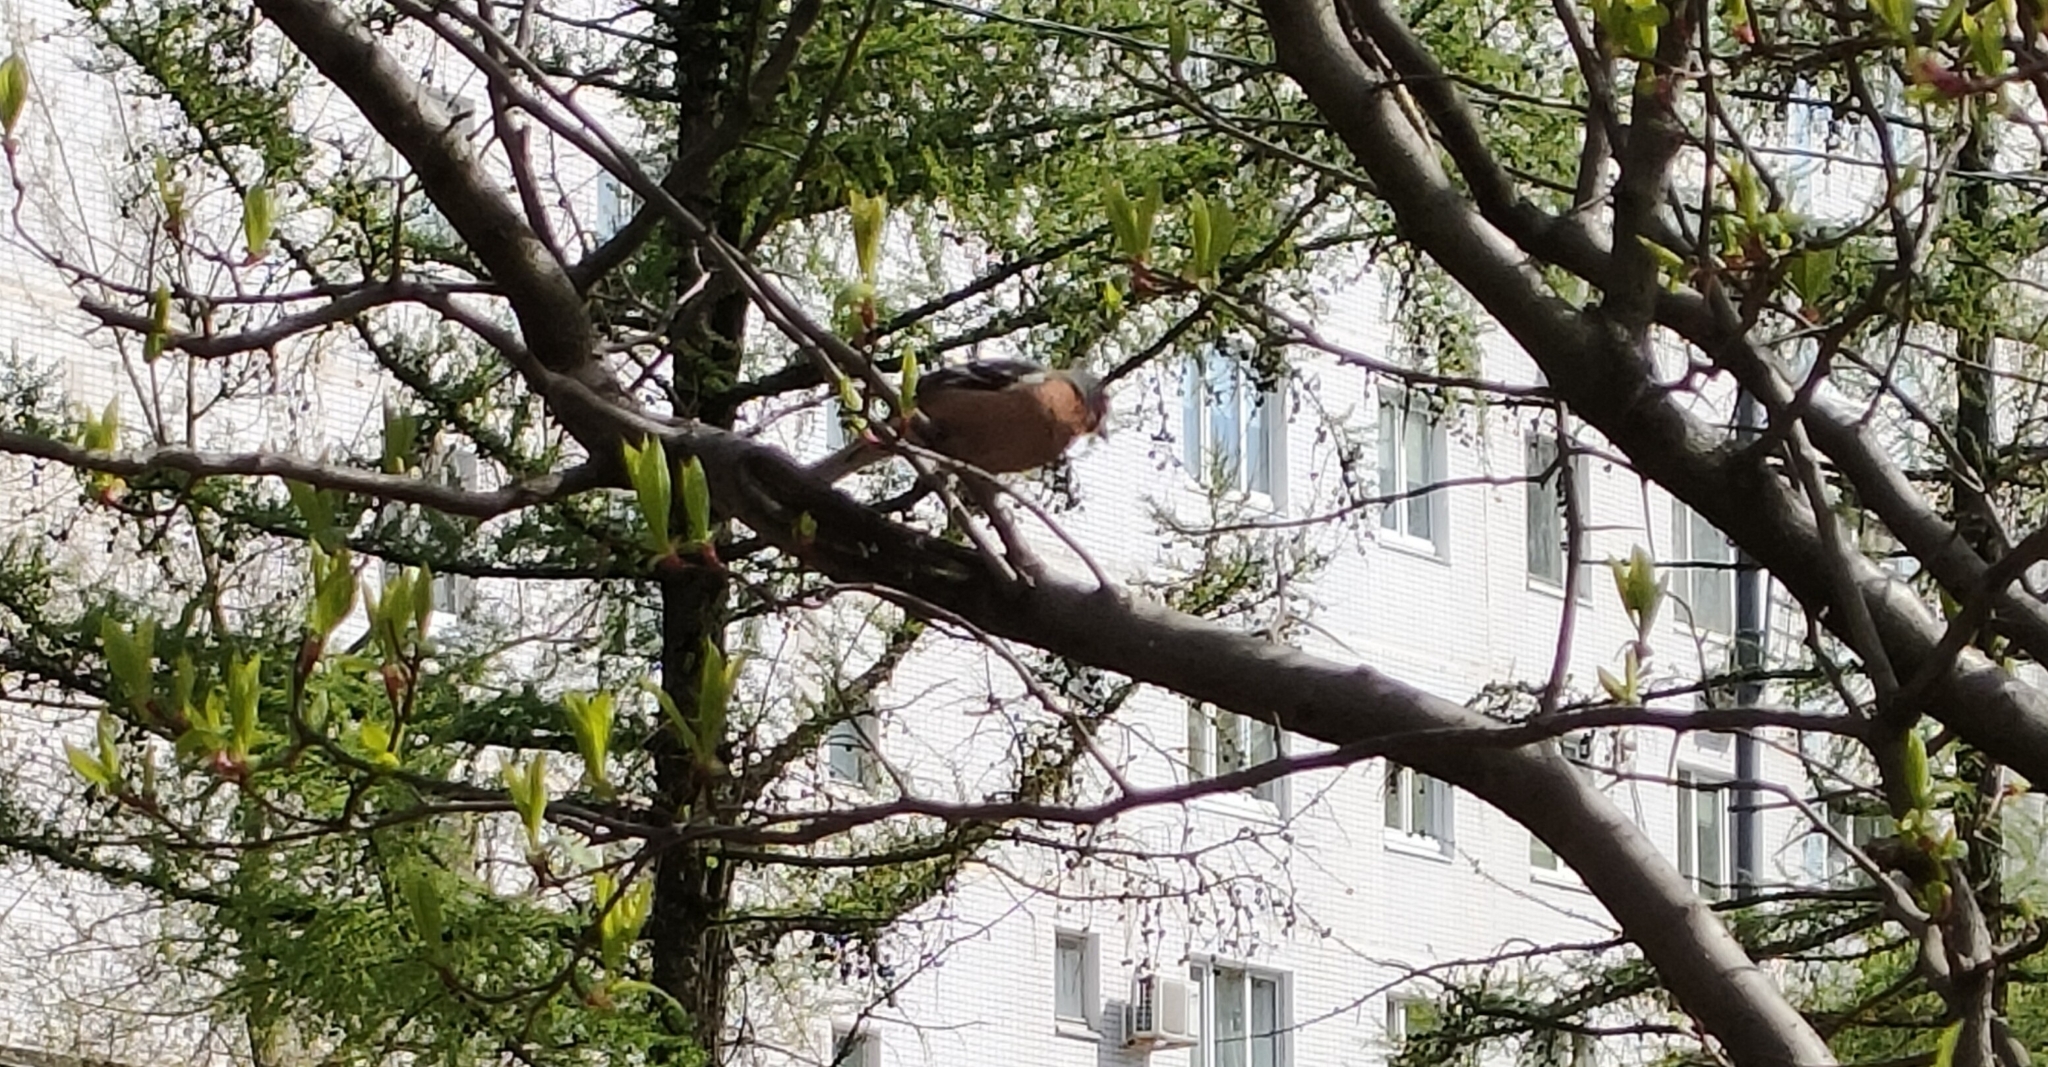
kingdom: Animalia
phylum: Chordata
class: Aves
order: Passeriformes
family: Fringillidae
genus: Fringilla
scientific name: Fringilla coelebs
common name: Common chaffinch
